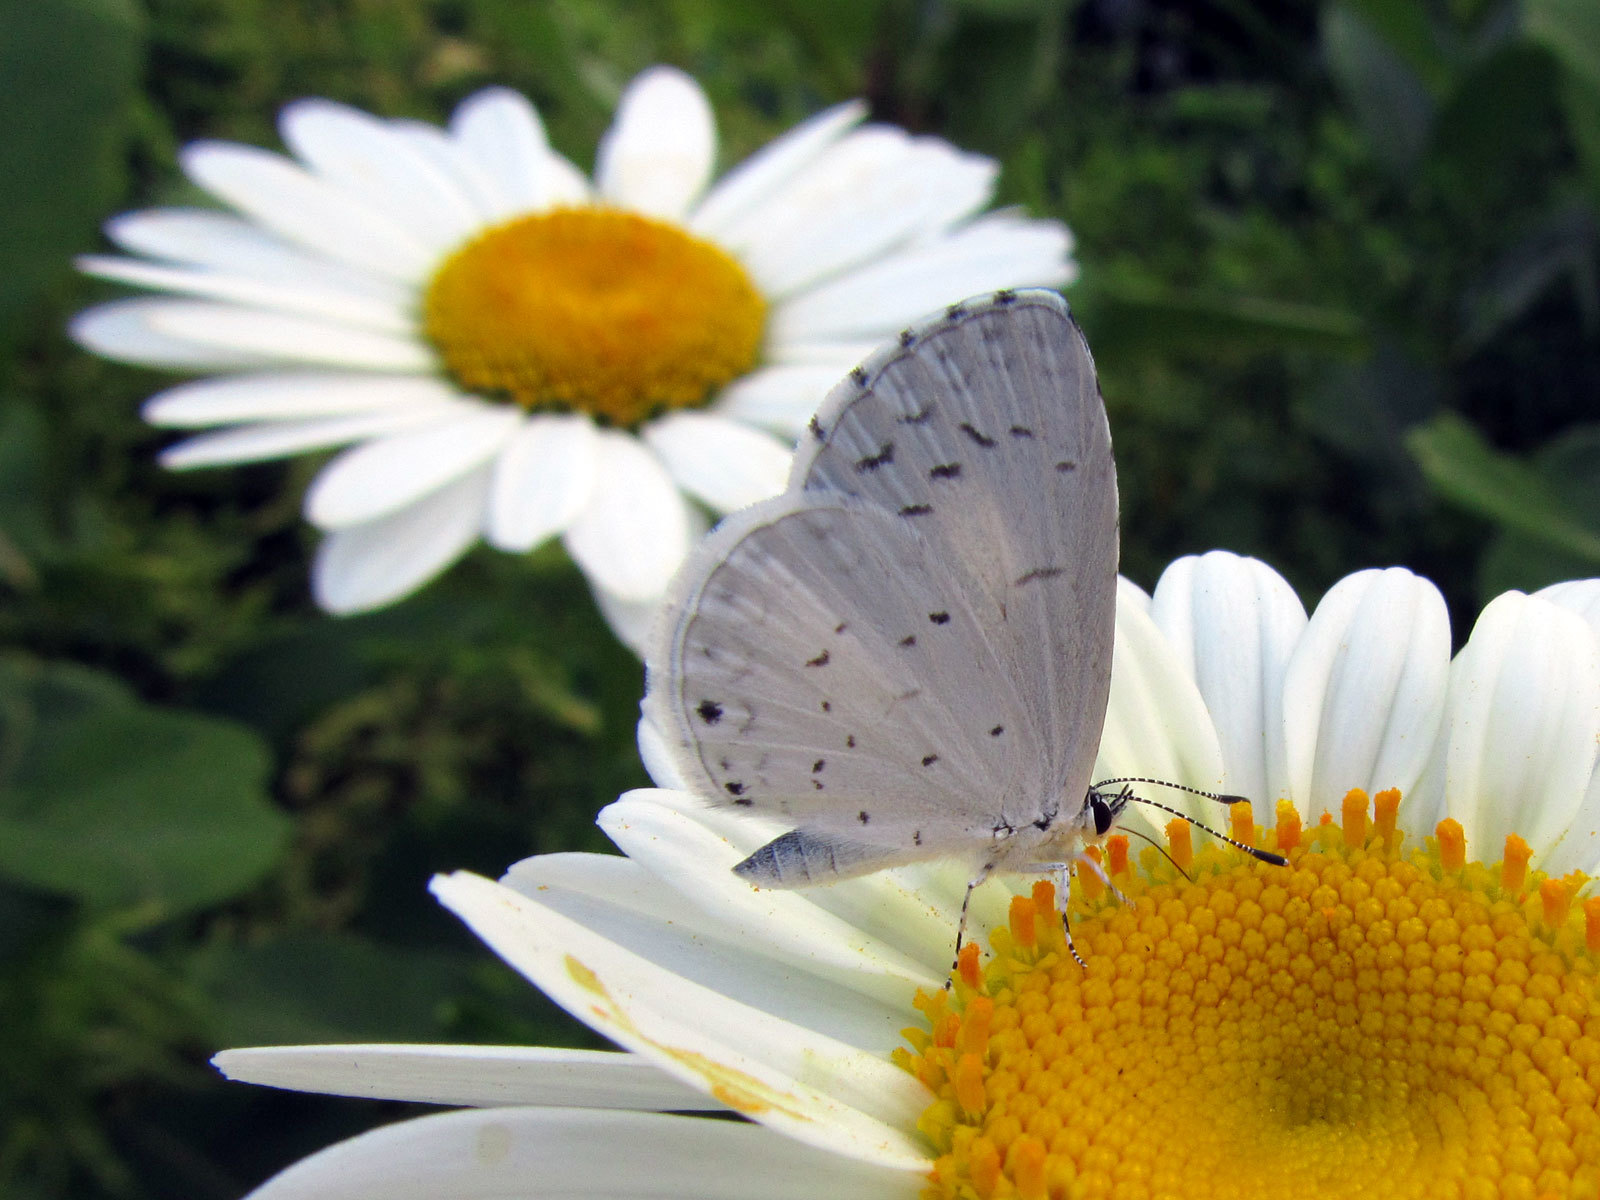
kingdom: Animalia
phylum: Arthropoda
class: Insecta
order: Lepidoptera
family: Lycaenidae
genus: Cyaniris
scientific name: Cyaniris neglecta
